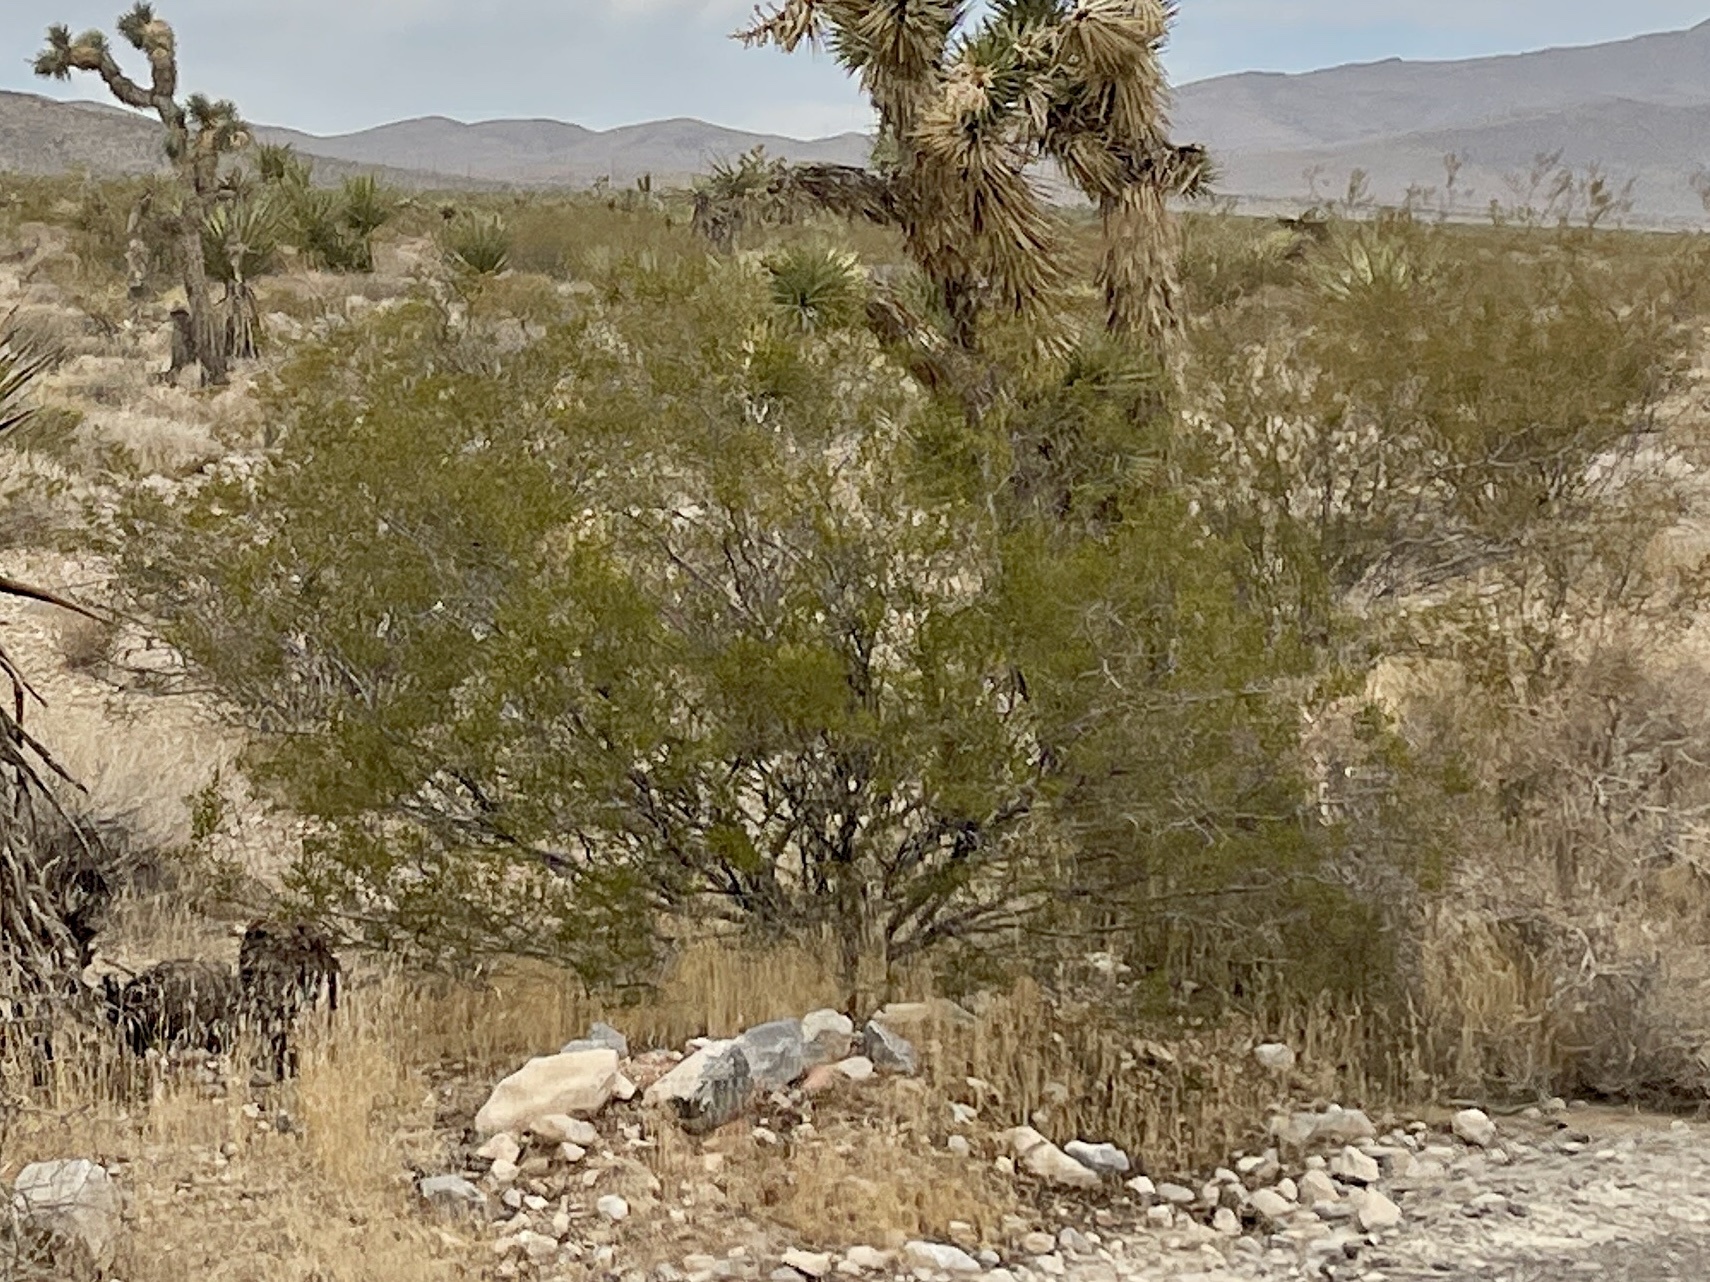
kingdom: Plantae
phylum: Tracheophyta
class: Magnoliopsida
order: Zygophyllales
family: Zygophyllaceae
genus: Larrea
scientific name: Larrea tridentata
